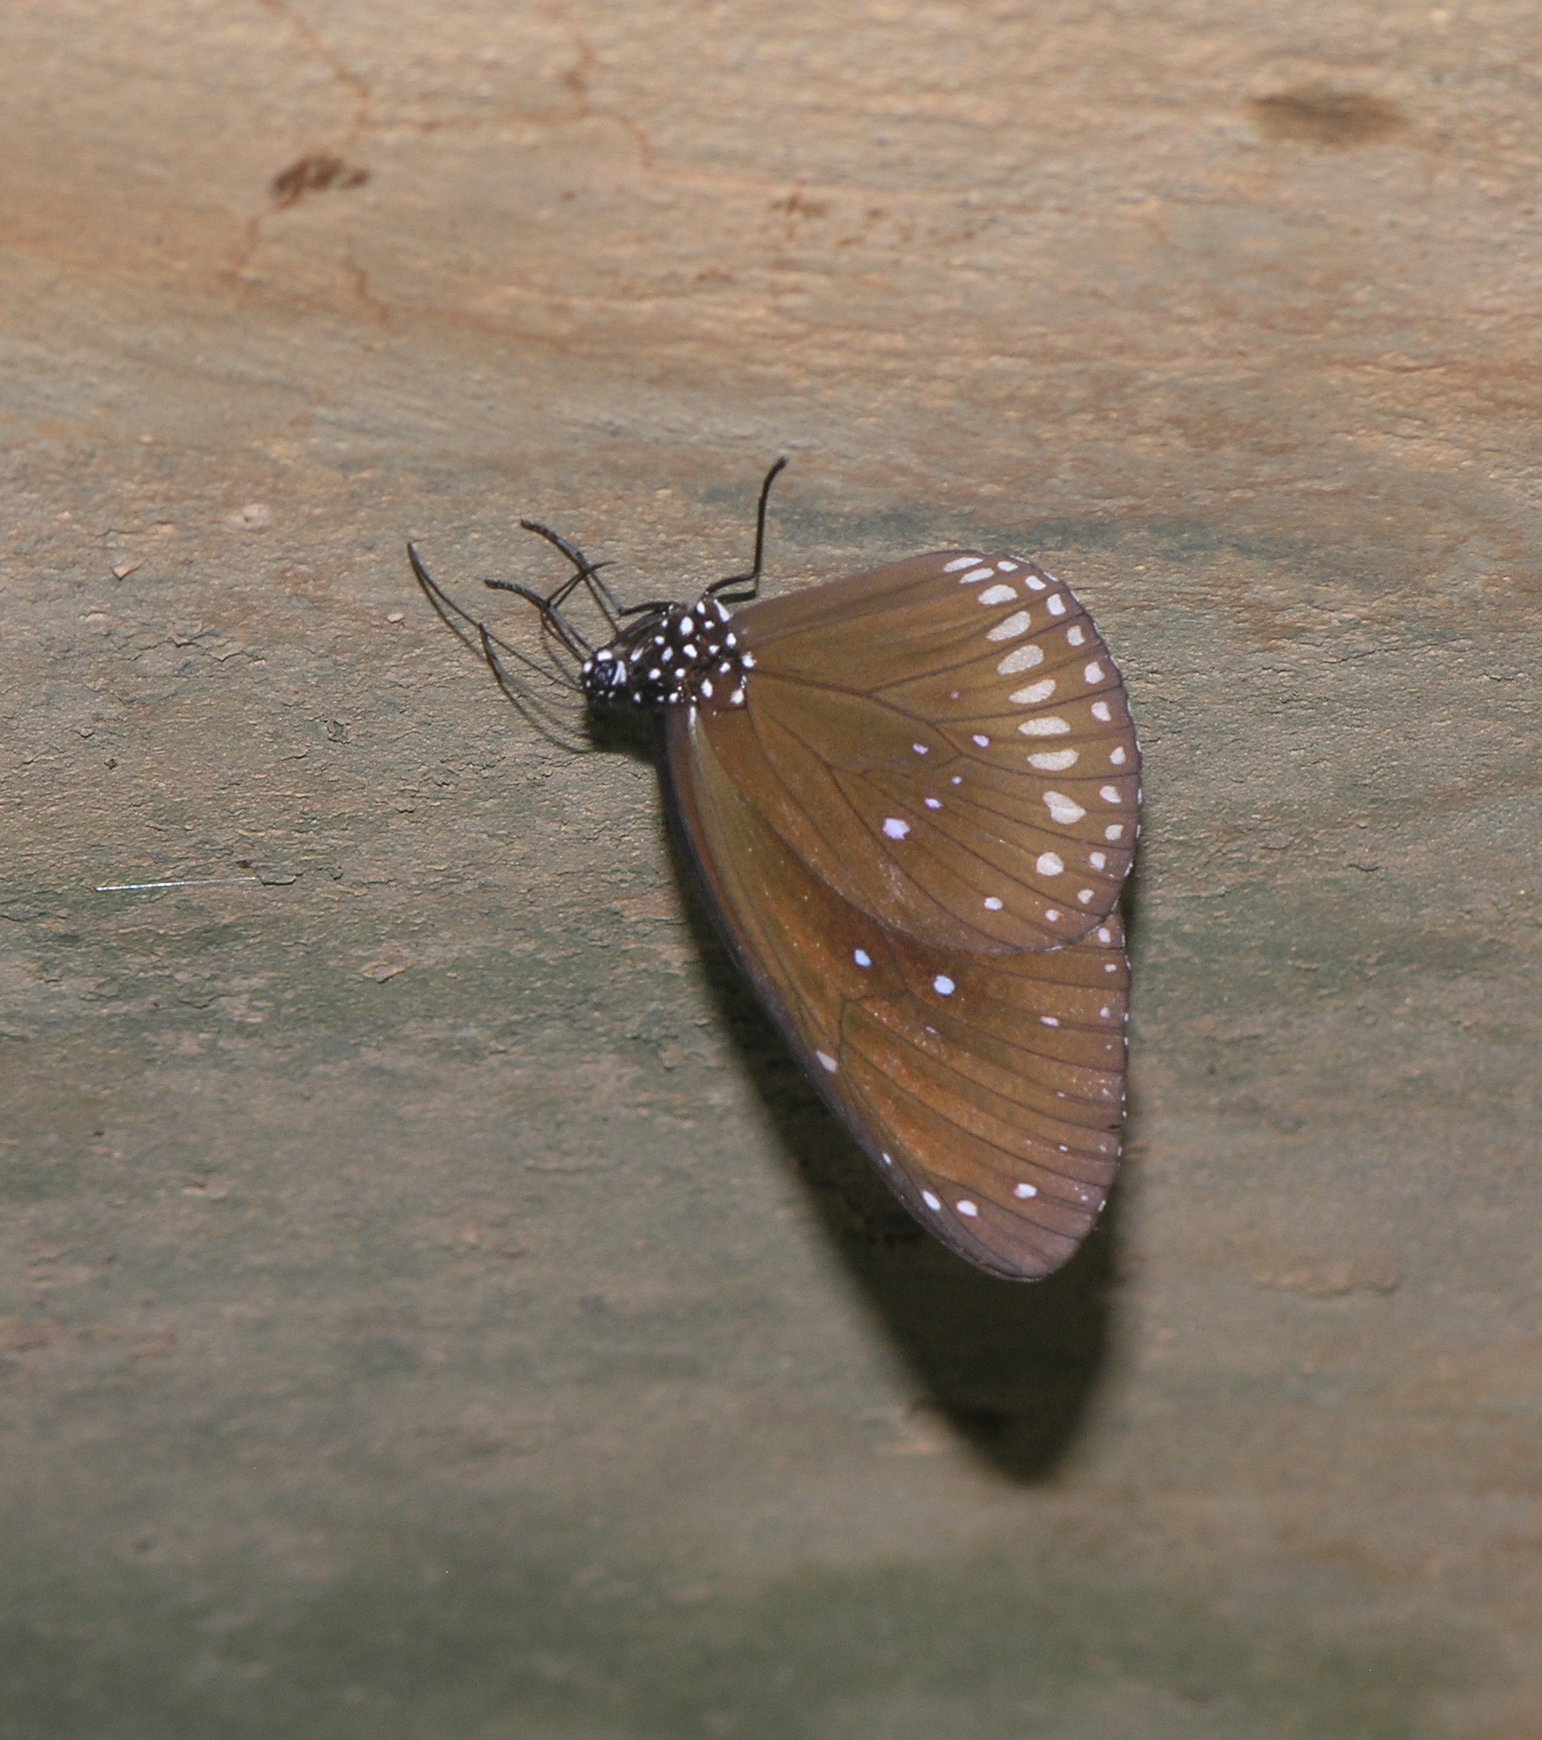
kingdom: Animalia
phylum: Arthropoda
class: Insecta
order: Lepidoptera
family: Nymphalidae
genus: Euploea
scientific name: Euploea core
